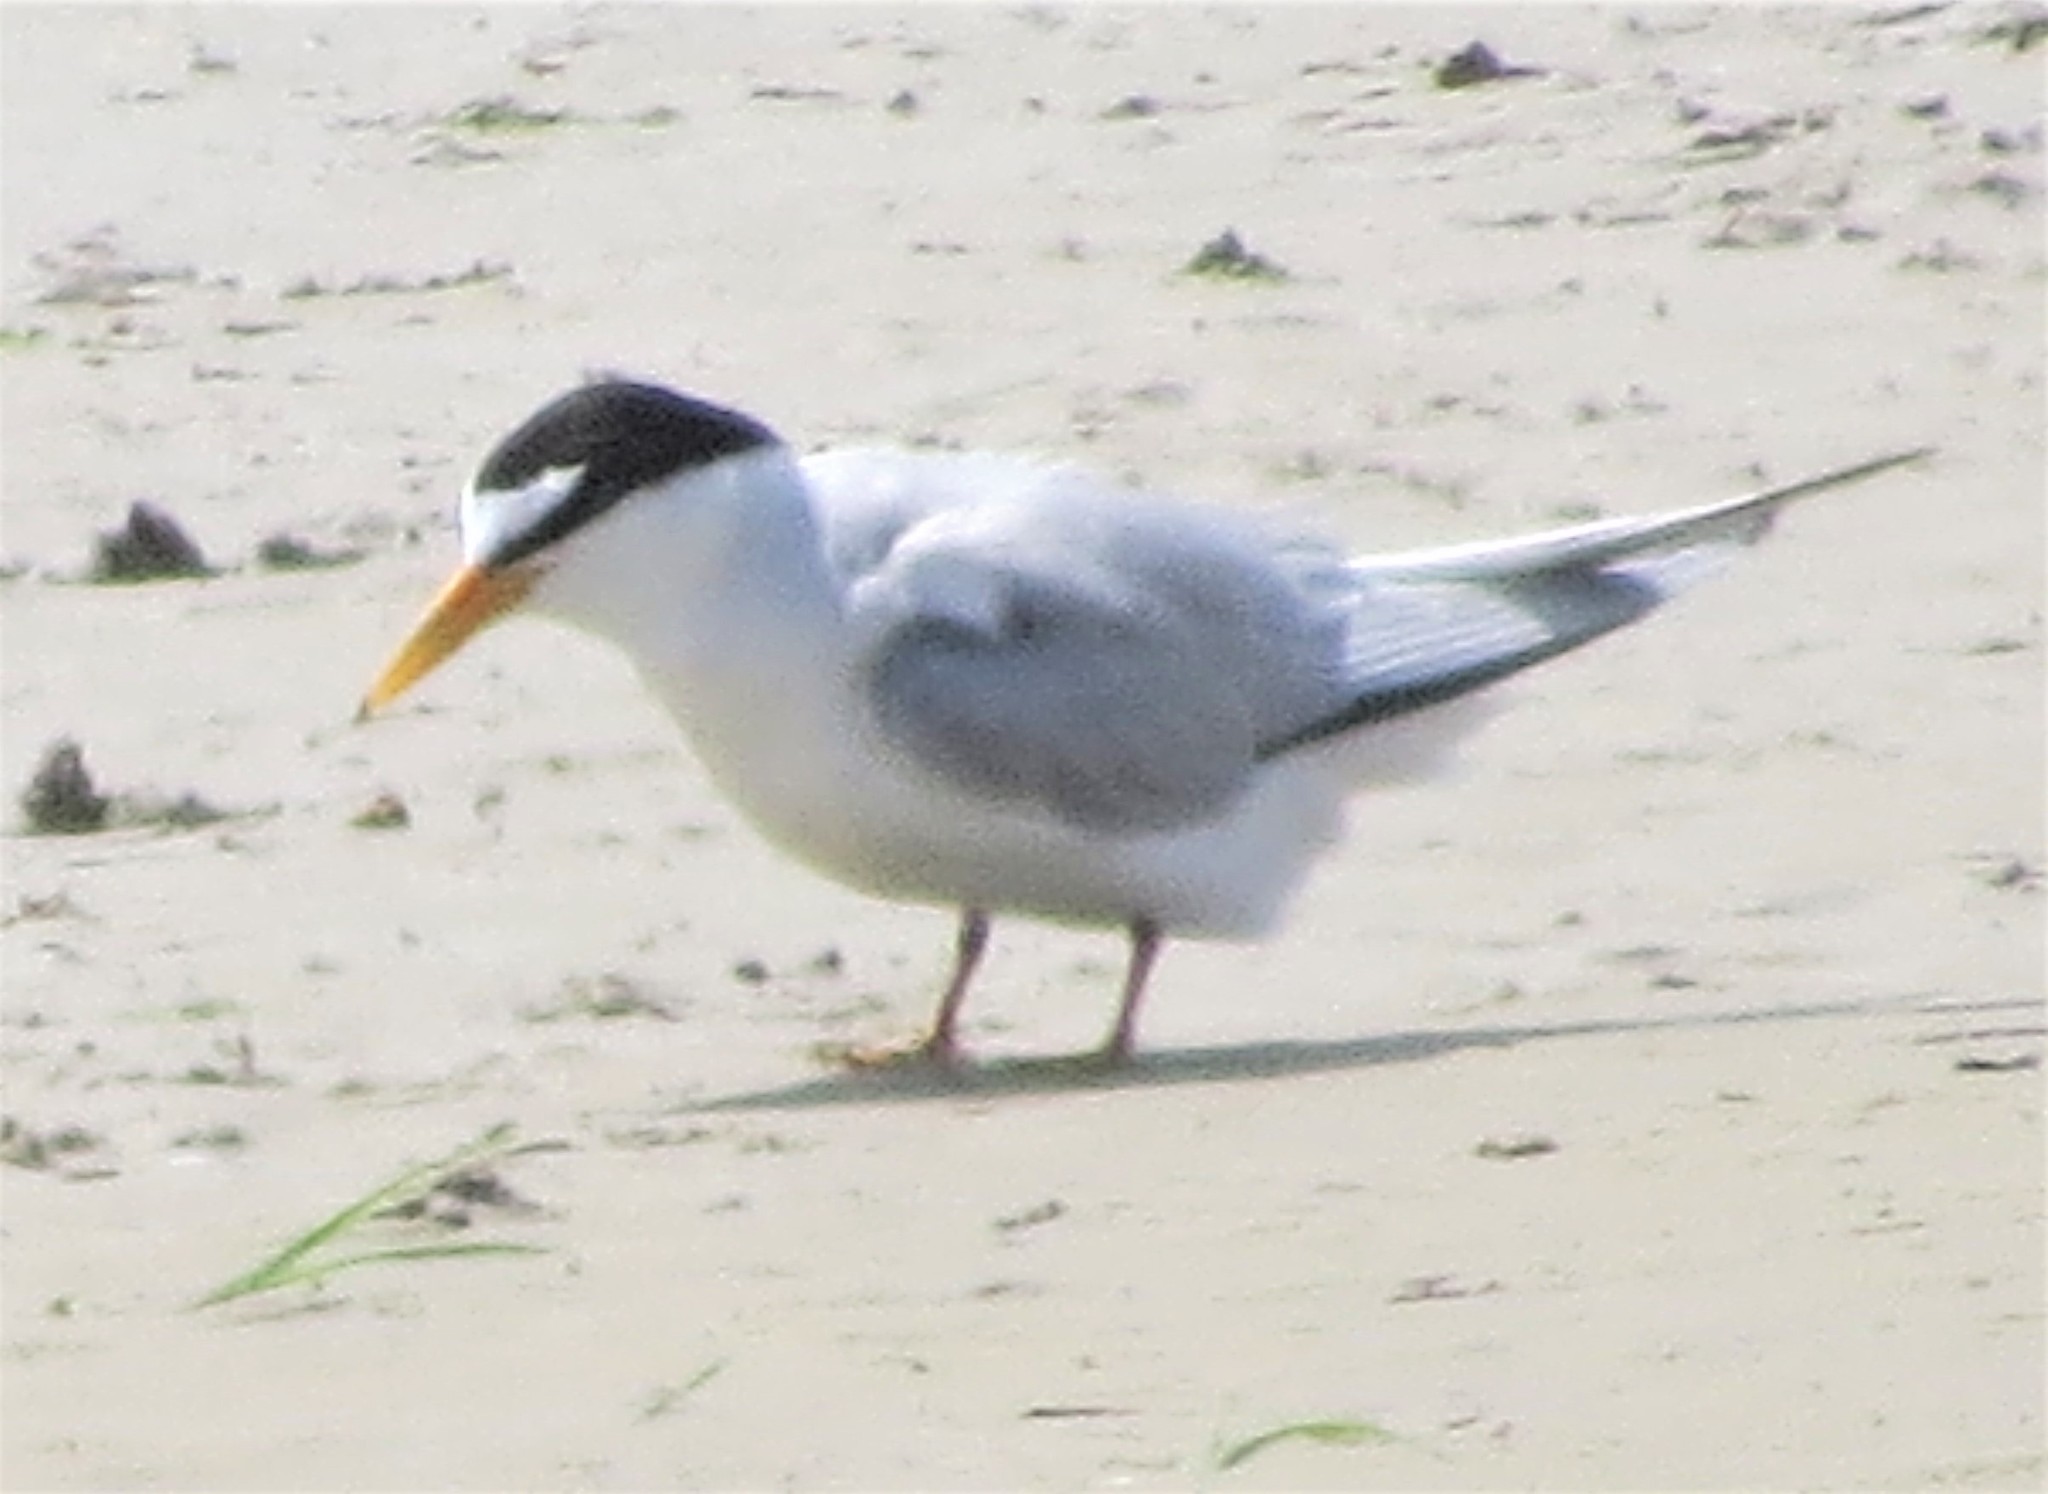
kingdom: Animalia
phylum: Chordata
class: Aves
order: Charadriiformes
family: Laridae
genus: Sternula
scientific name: Sternula antillarum
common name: Least tern
